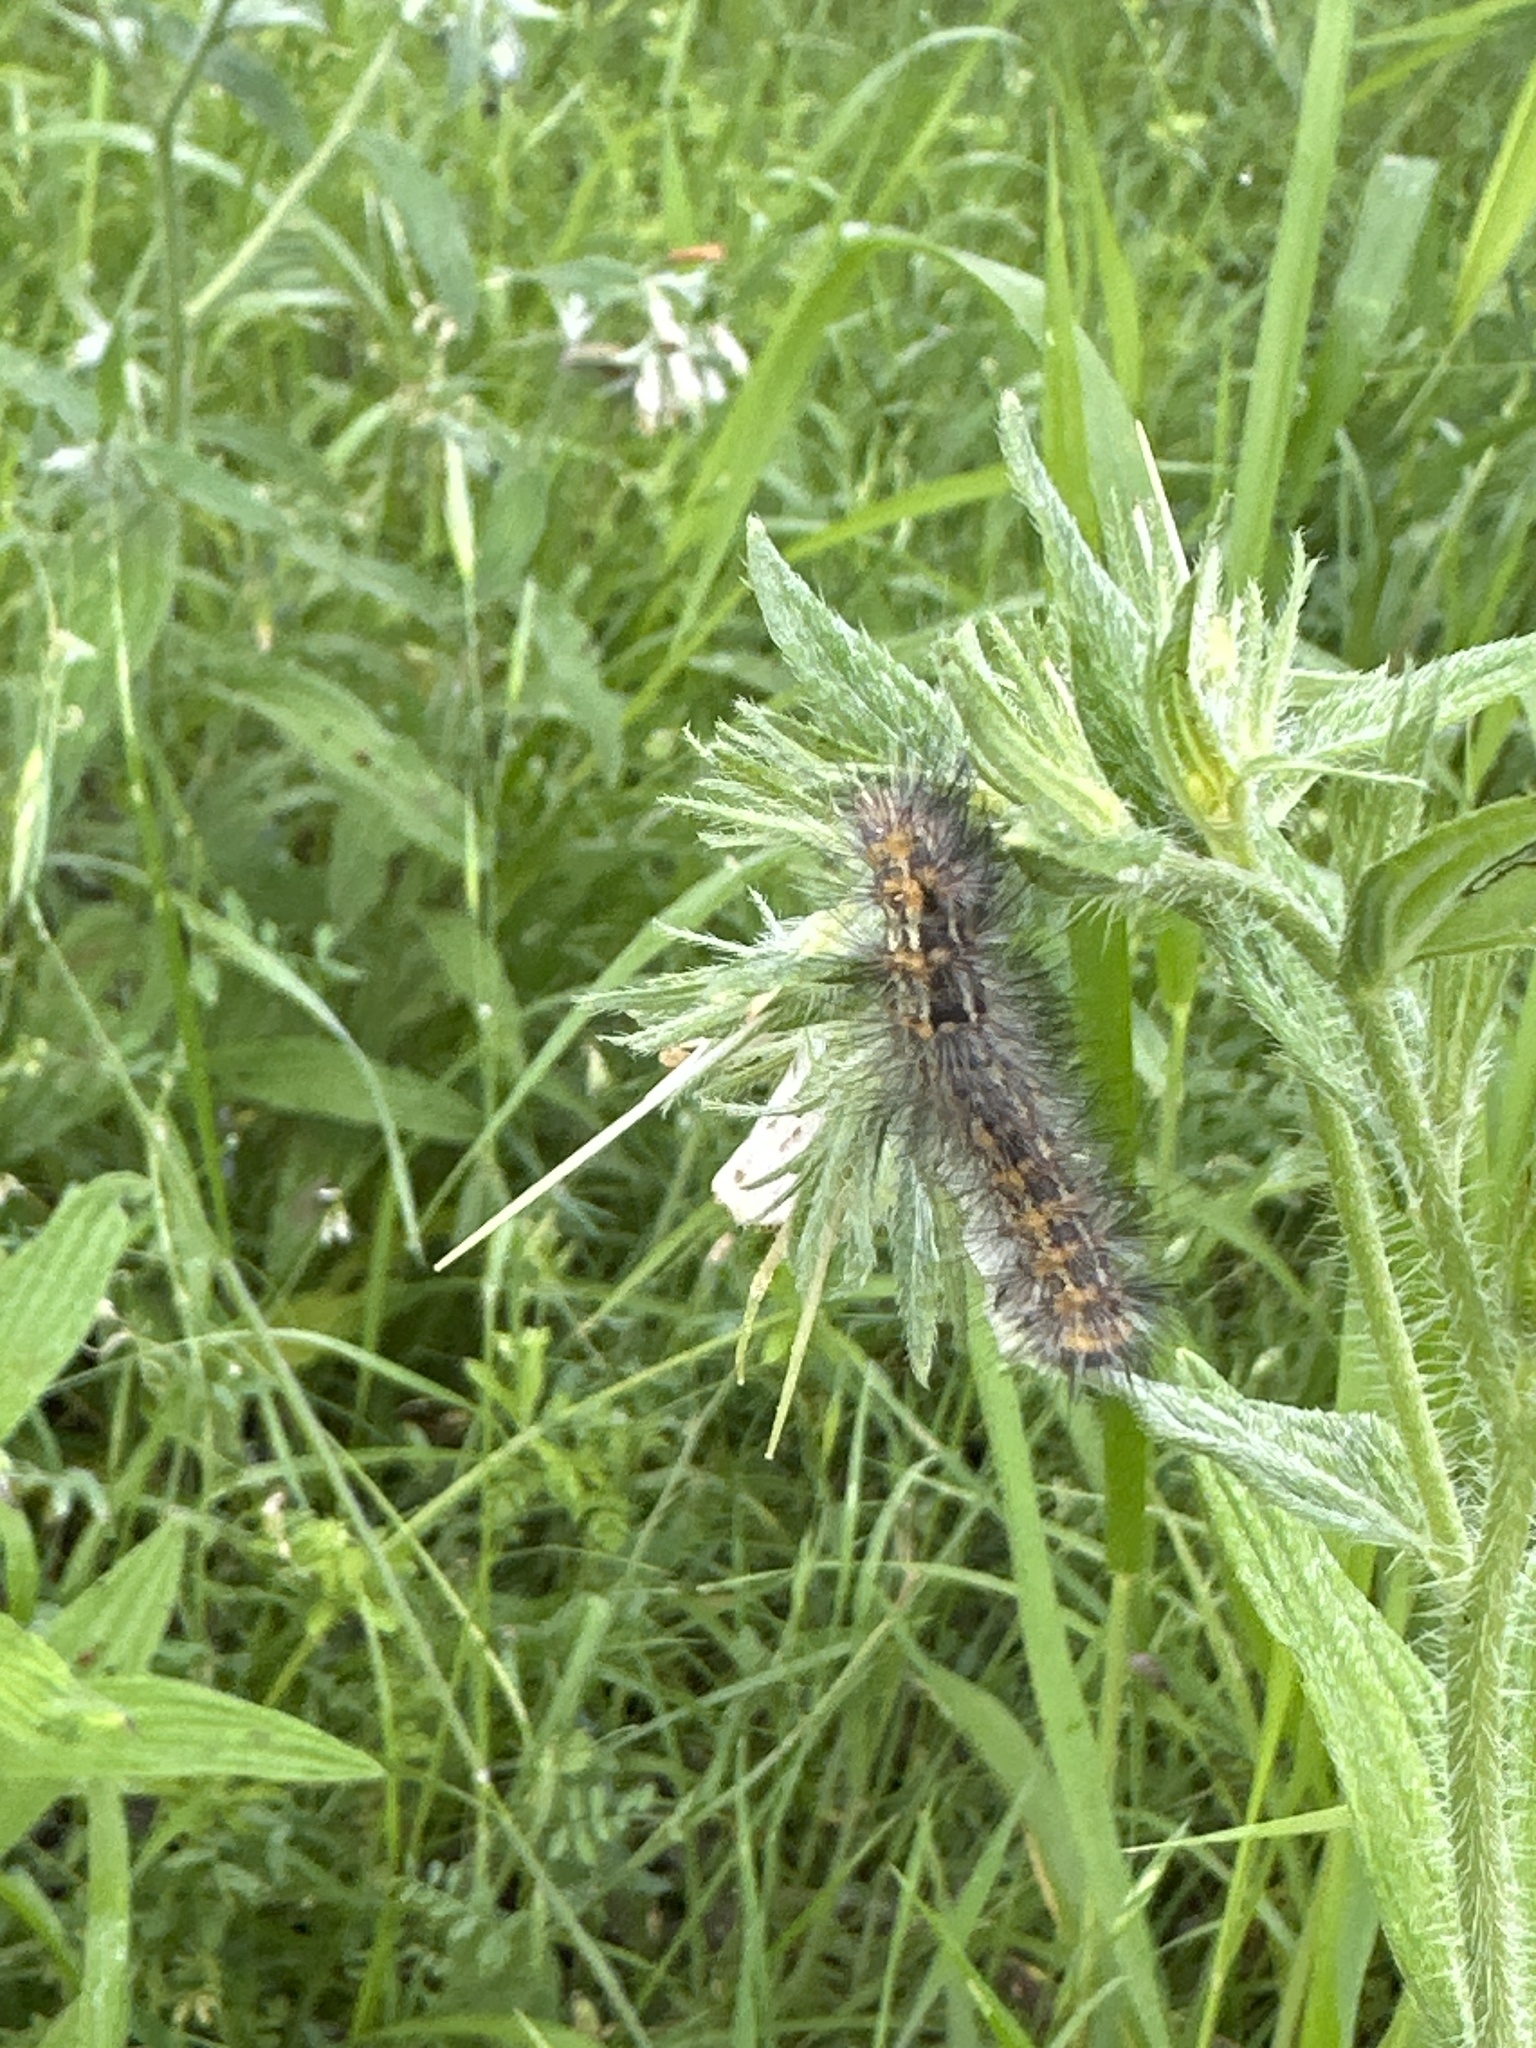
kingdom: Animalia
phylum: Arthropoda
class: Insecta
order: Lepidoptera
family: Erebidae
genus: Estigmene
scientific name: Estigmene acrea
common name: Salt marsh moth
